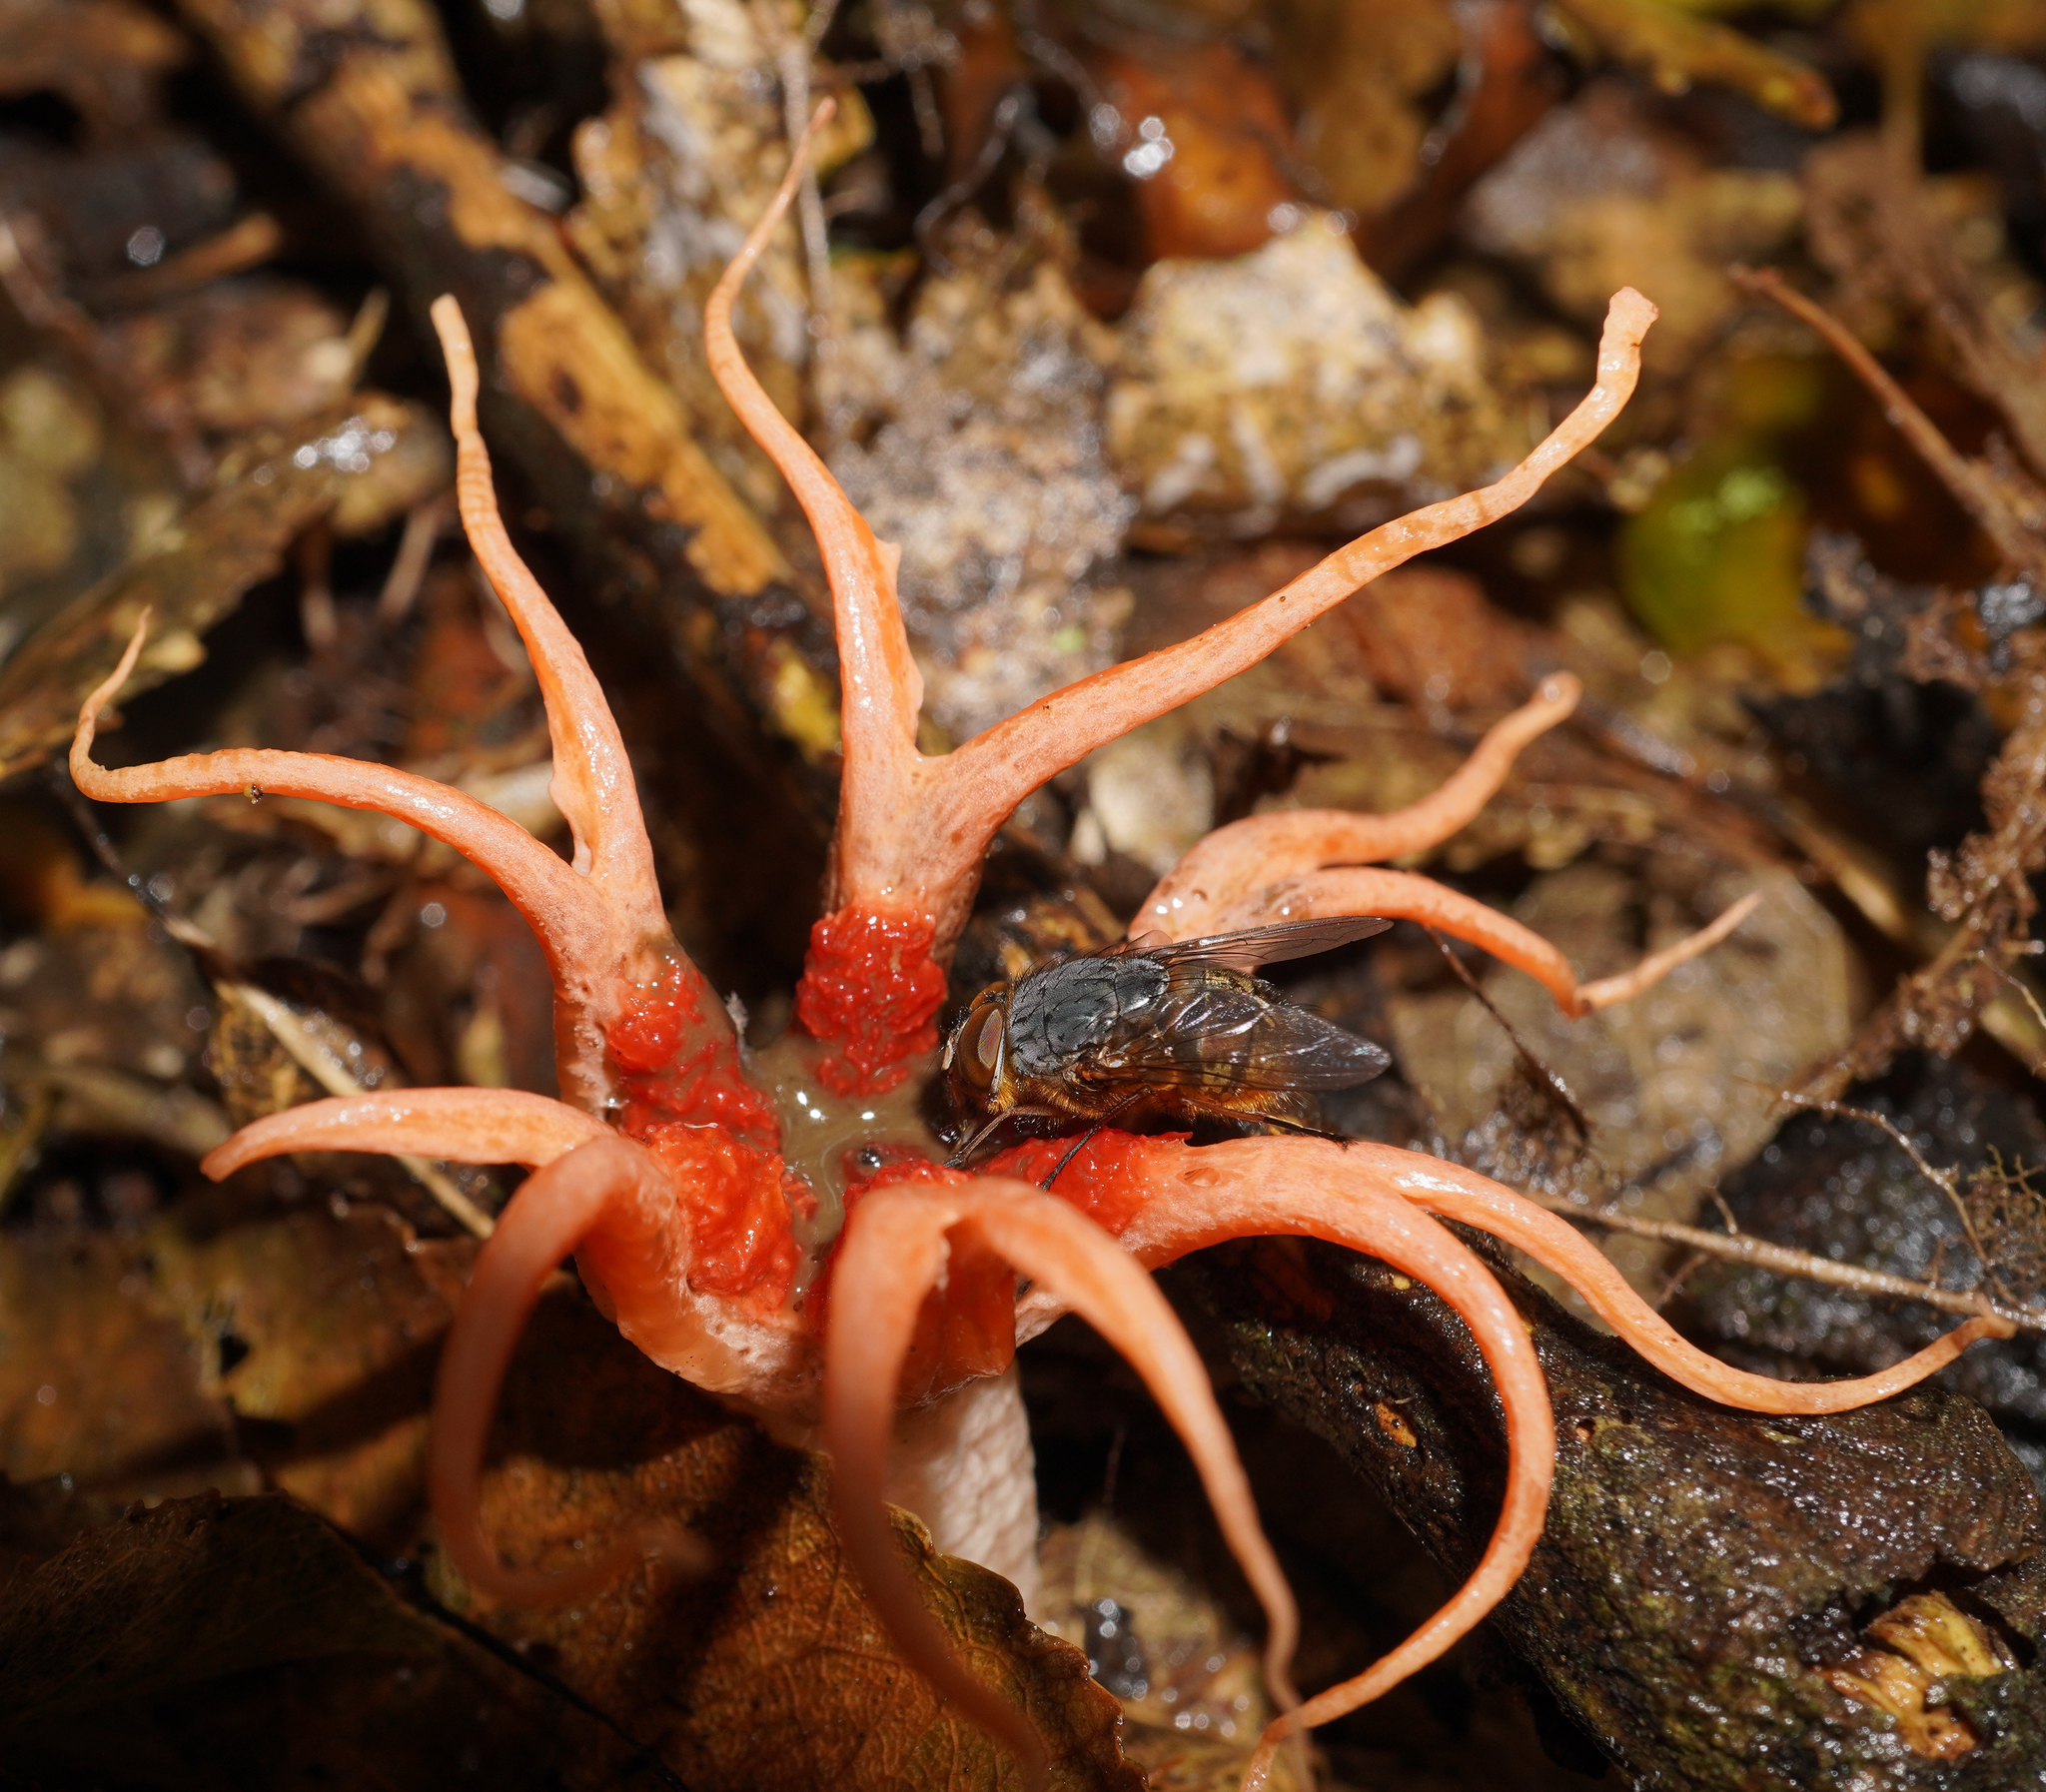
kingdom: Animalia
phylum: Arthropoda
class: Insecta
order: Diptera
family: Calliphoridae
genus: Calliphora
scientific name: Calliphora stygia
